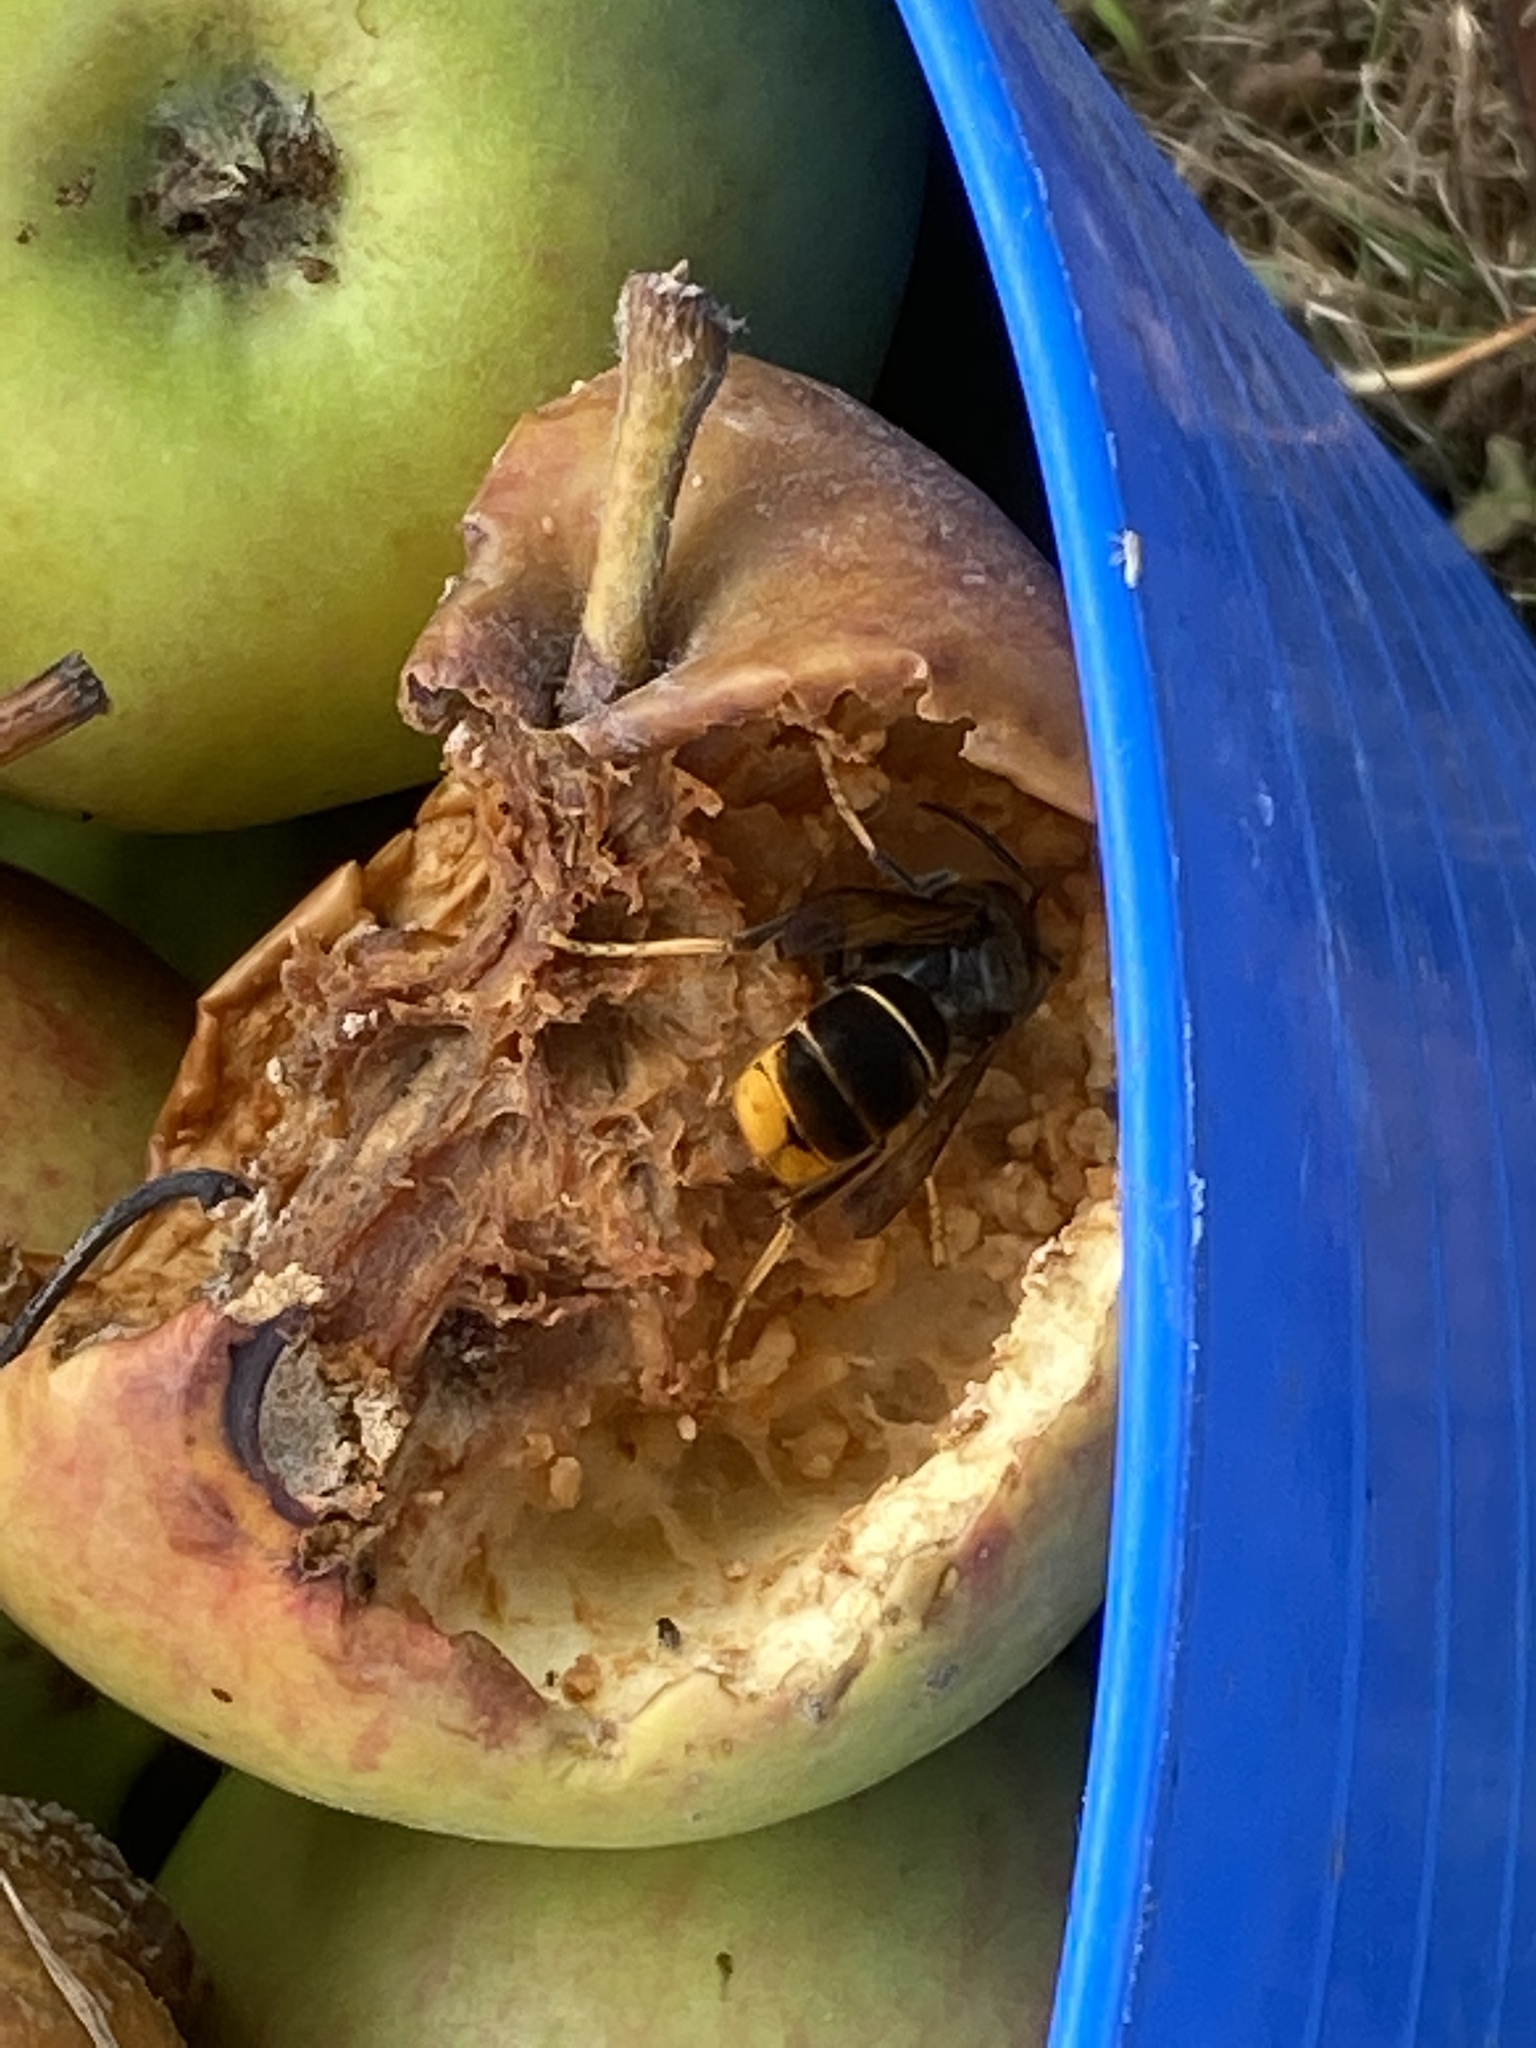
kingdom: Animalia
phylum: Arthropoda
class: Insecta
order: Hymenoptera
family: Vespidae
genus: Vespa
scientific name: Vespa velutina
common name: Asian hornet
